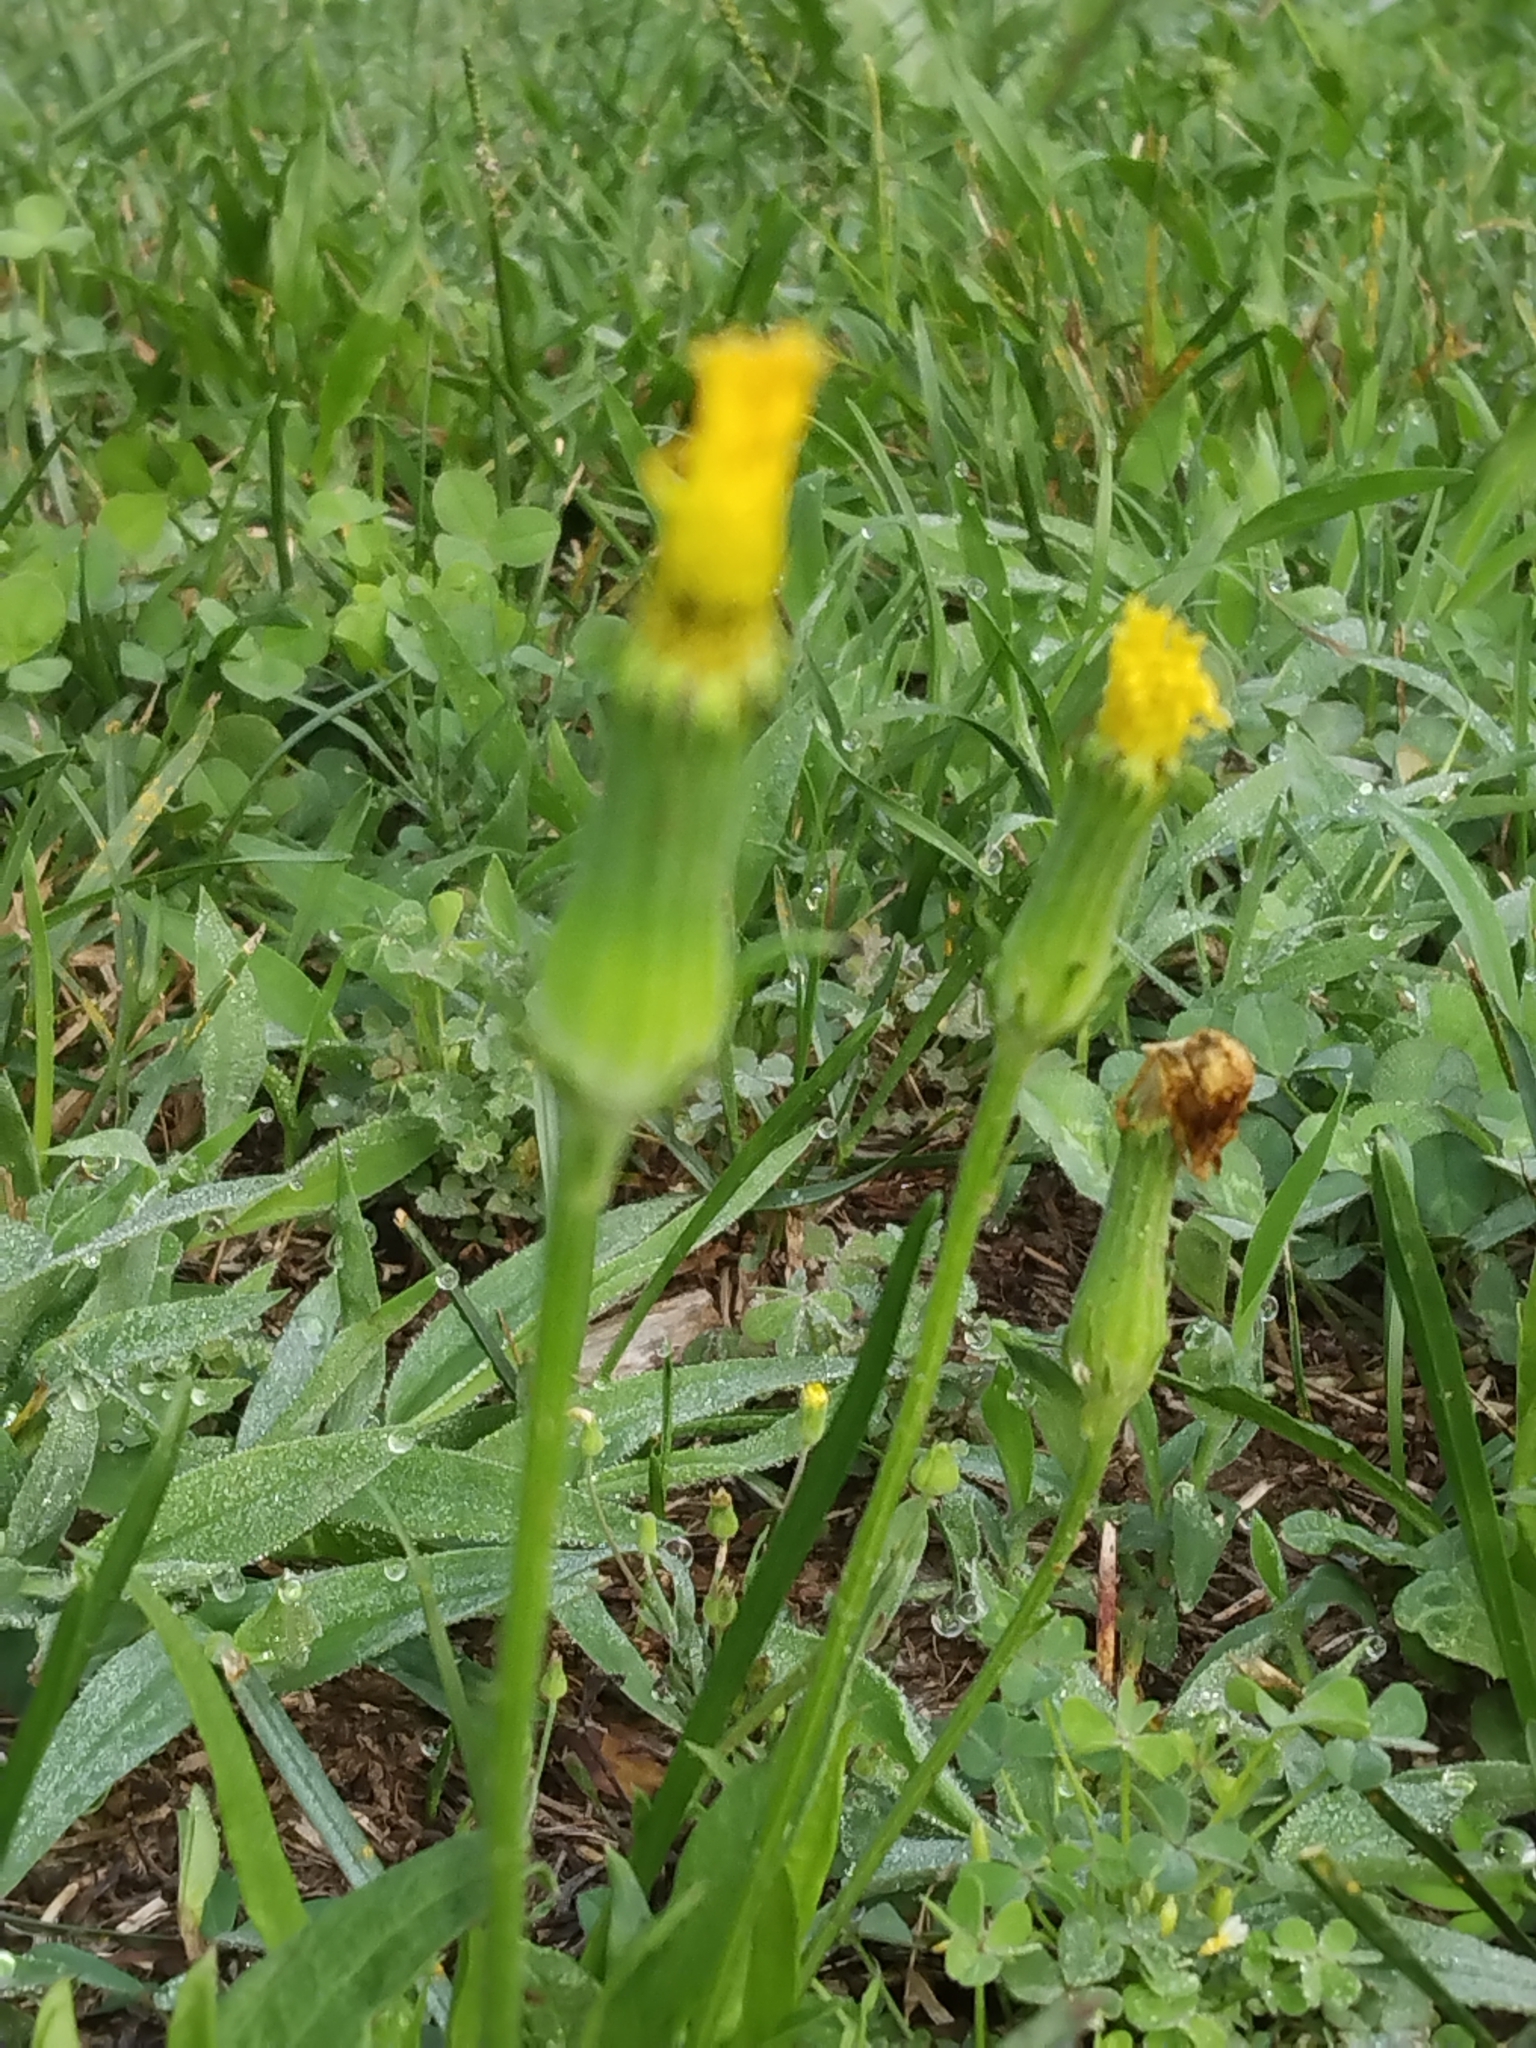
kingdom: Plantae
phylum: Tracheophyta
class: Magnoliopsida
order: Asterales
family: Asteraceae
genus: Pyrrhopappus
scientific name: Pyrrhopappus carolinianus
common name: Carolina desert-chicory
